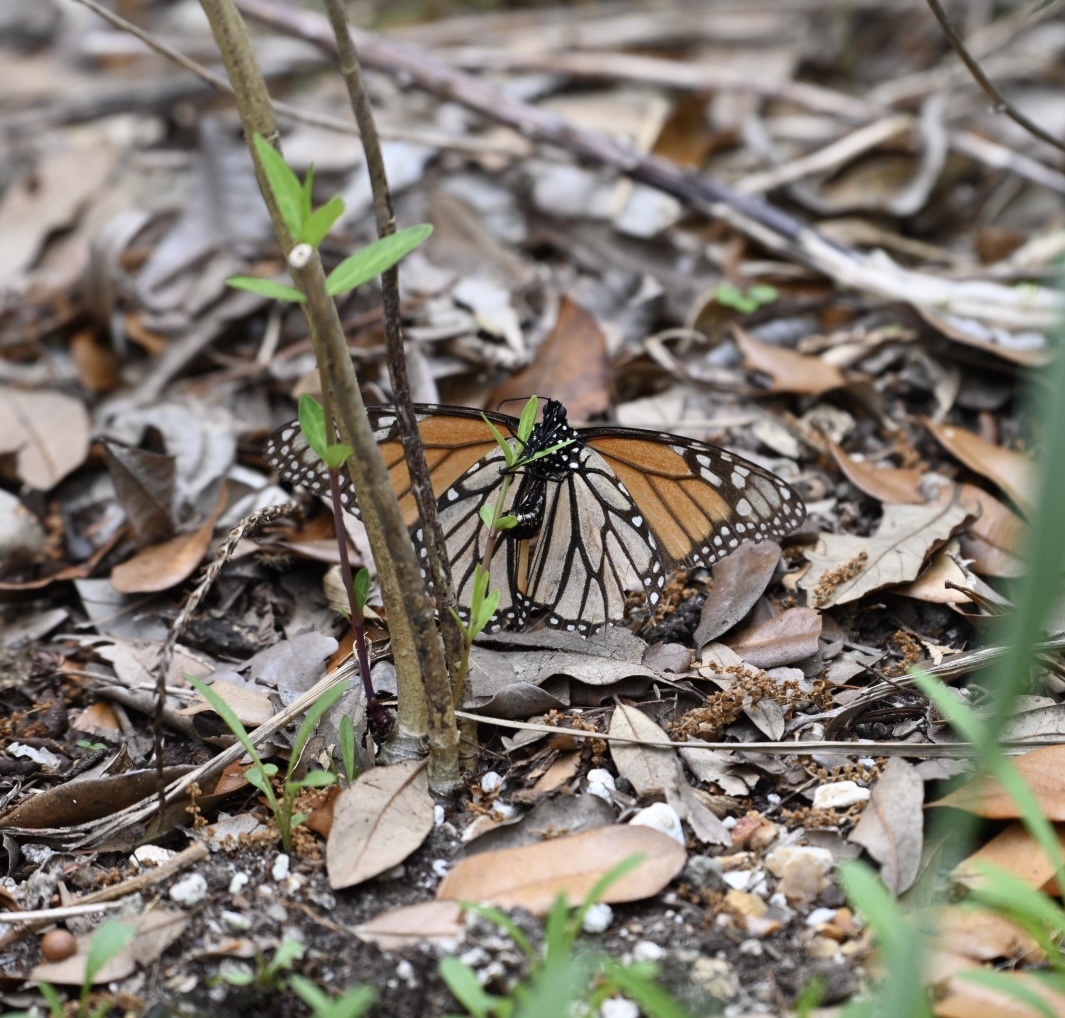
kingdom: Animalia
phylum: Arthropoda
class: Insecta
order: Lepidoptera
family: Nymphalidae
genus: Danaus
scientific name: Danaus plexippus
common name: Monarch
